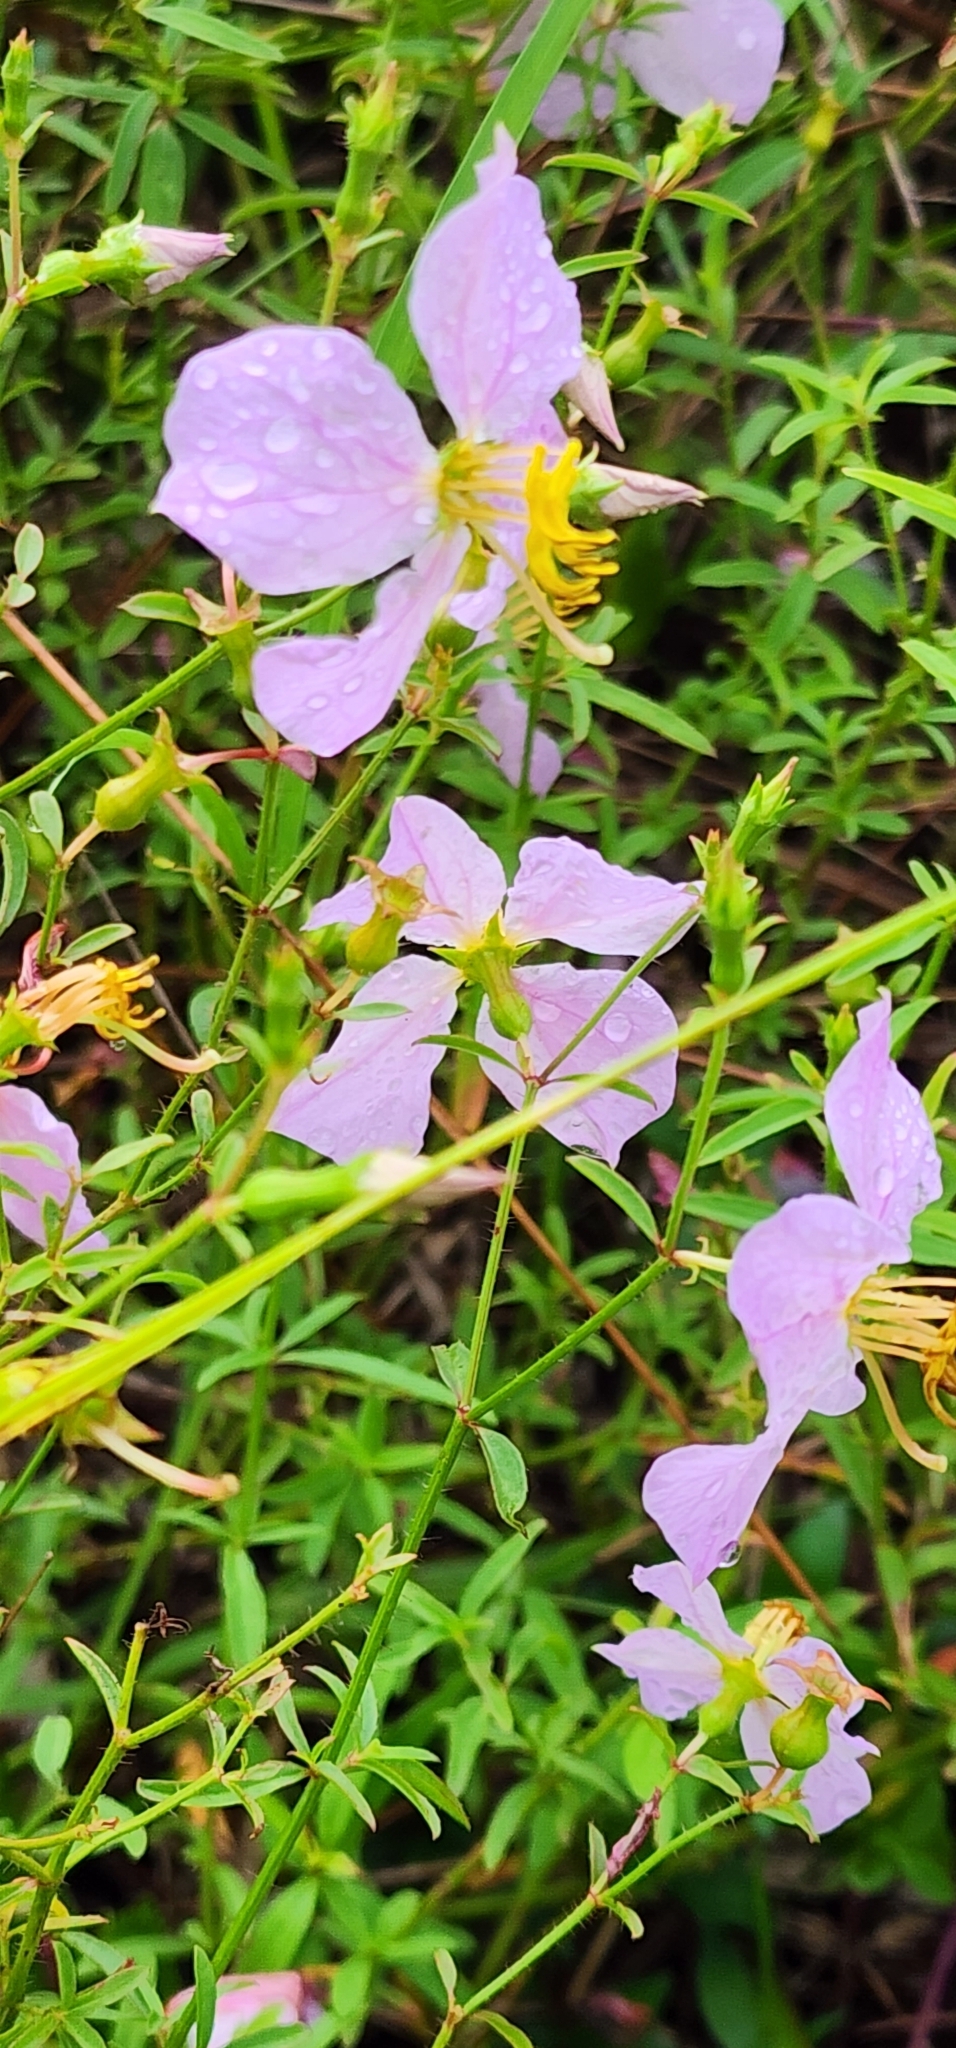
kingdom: Plantae
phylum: Tracheophyta
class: Magnoliopsida
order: Myrtales
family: Melastomataceae
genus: Rhexia
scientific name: Rhexia mariana
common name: Dull meadow-pitcher
